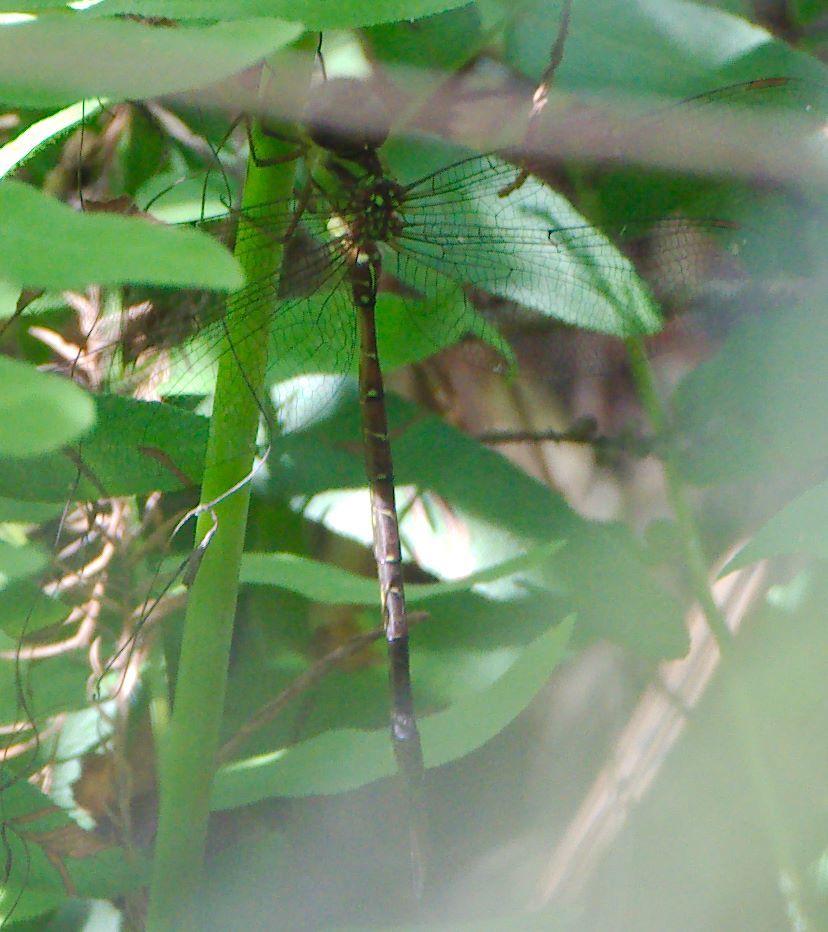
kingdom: Animalia
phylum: Arthropoda
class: Insecta
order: Odonata
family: Aeshnidae
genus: Triacanthagyna
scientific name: Triacanthagyna trifida
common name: Phantom darner
